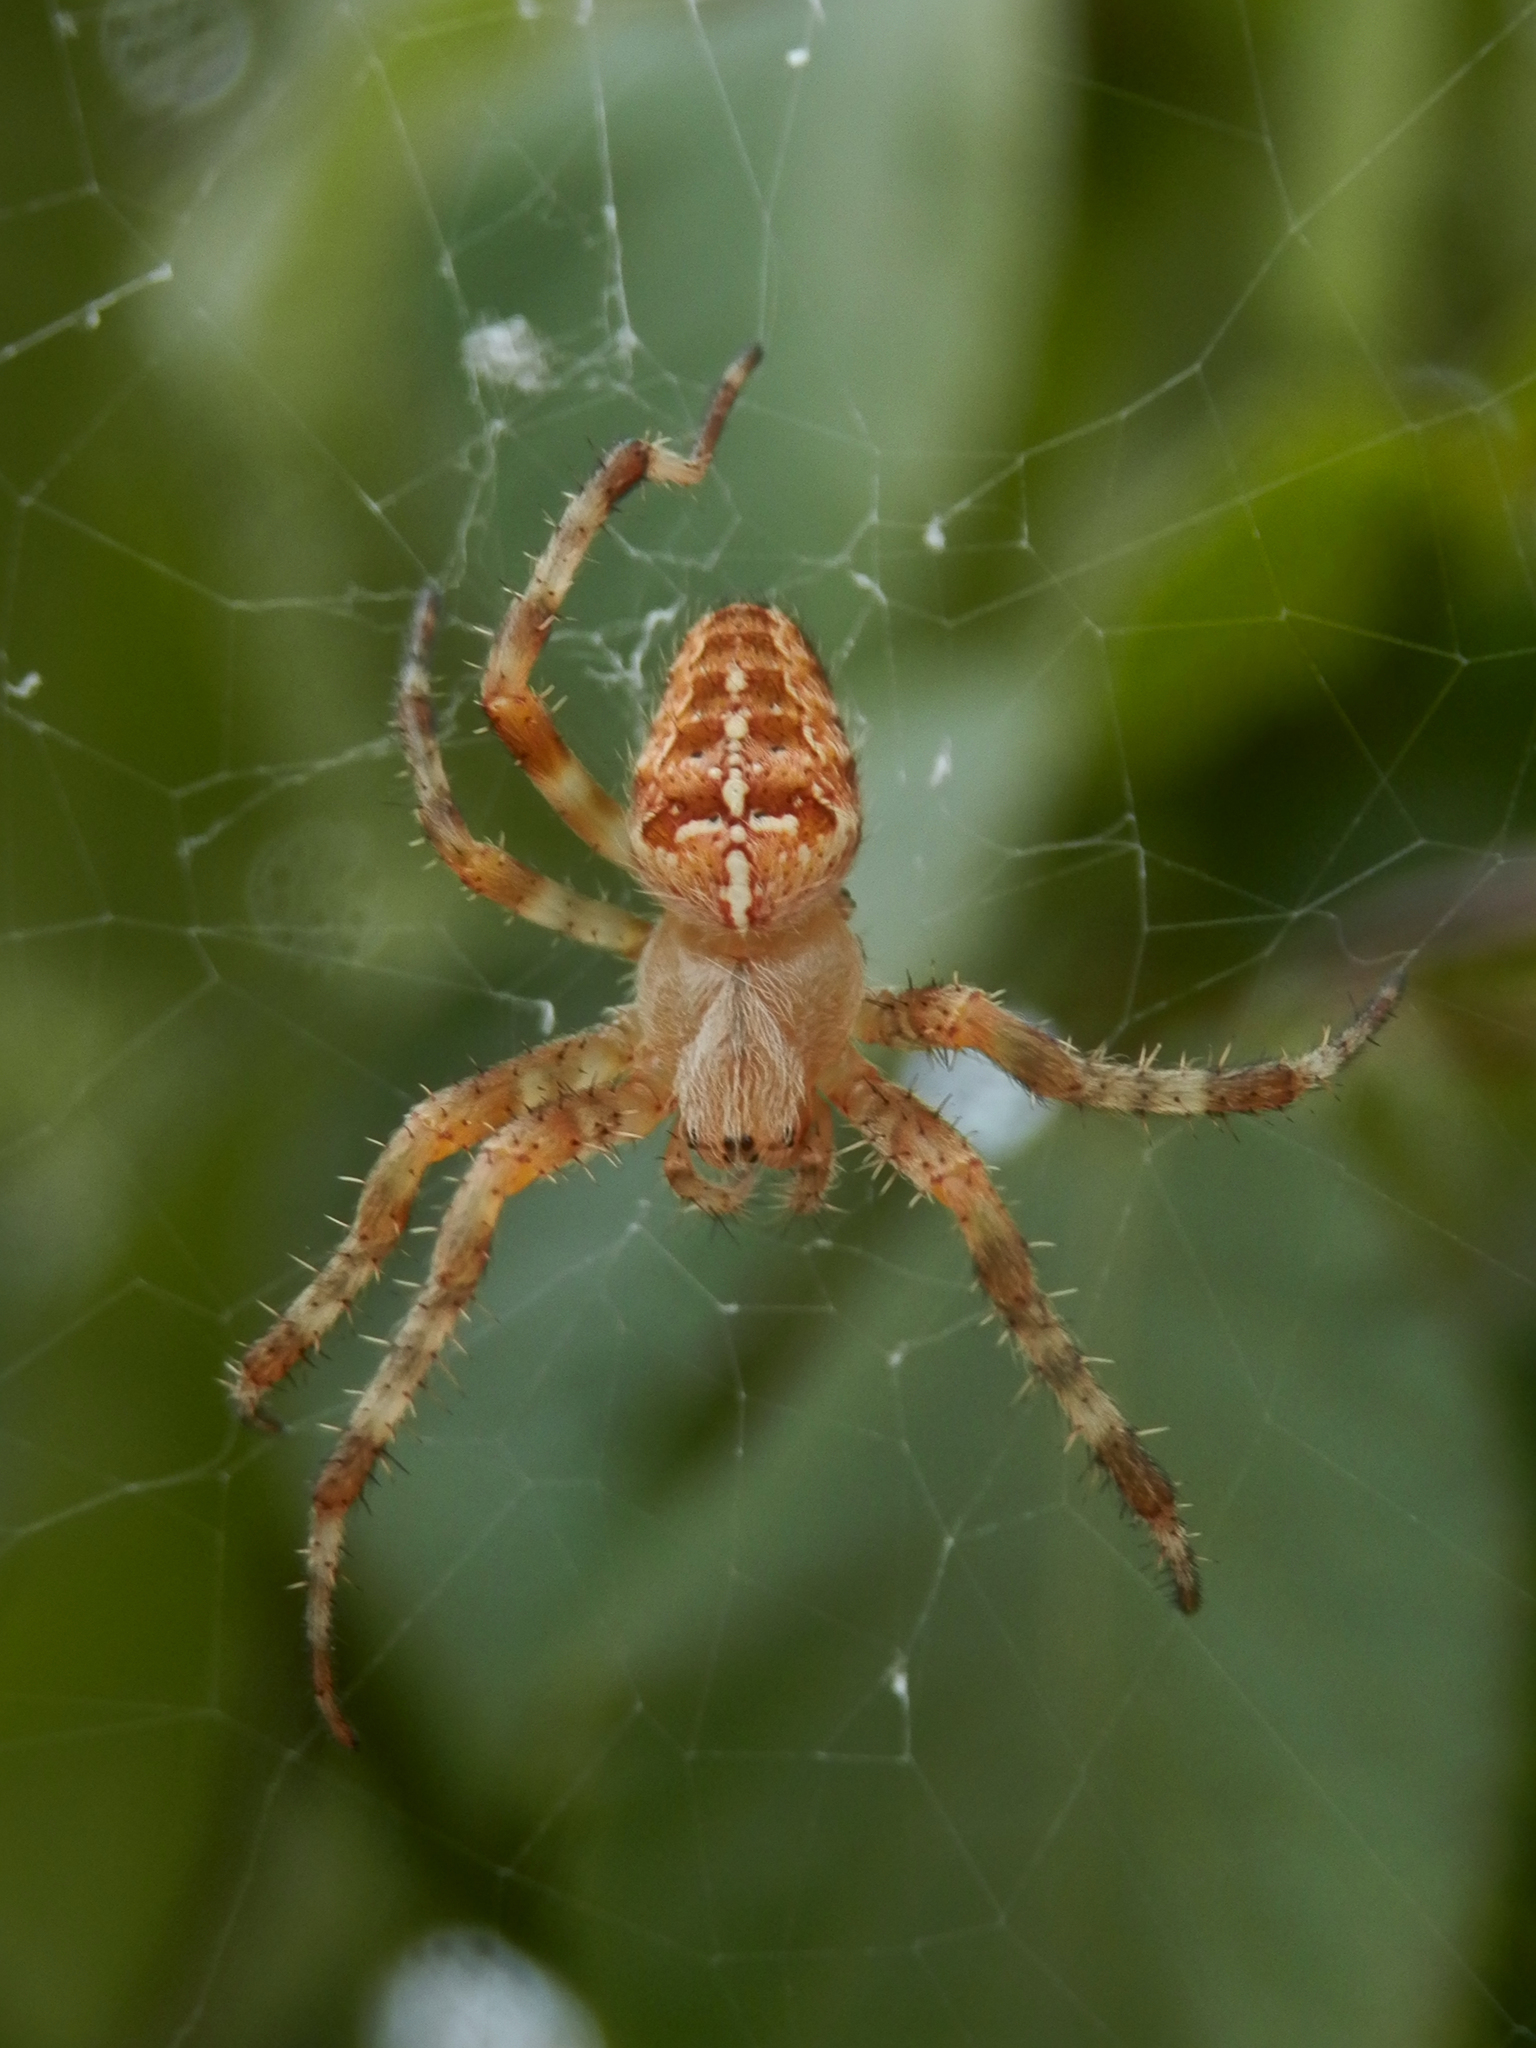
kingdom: Animalia
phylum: Arthropoda
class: Arachnida
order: Araneae
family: Araneidae
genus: Araneus
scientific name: Araneus diadematus
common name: Cross orbweaver
